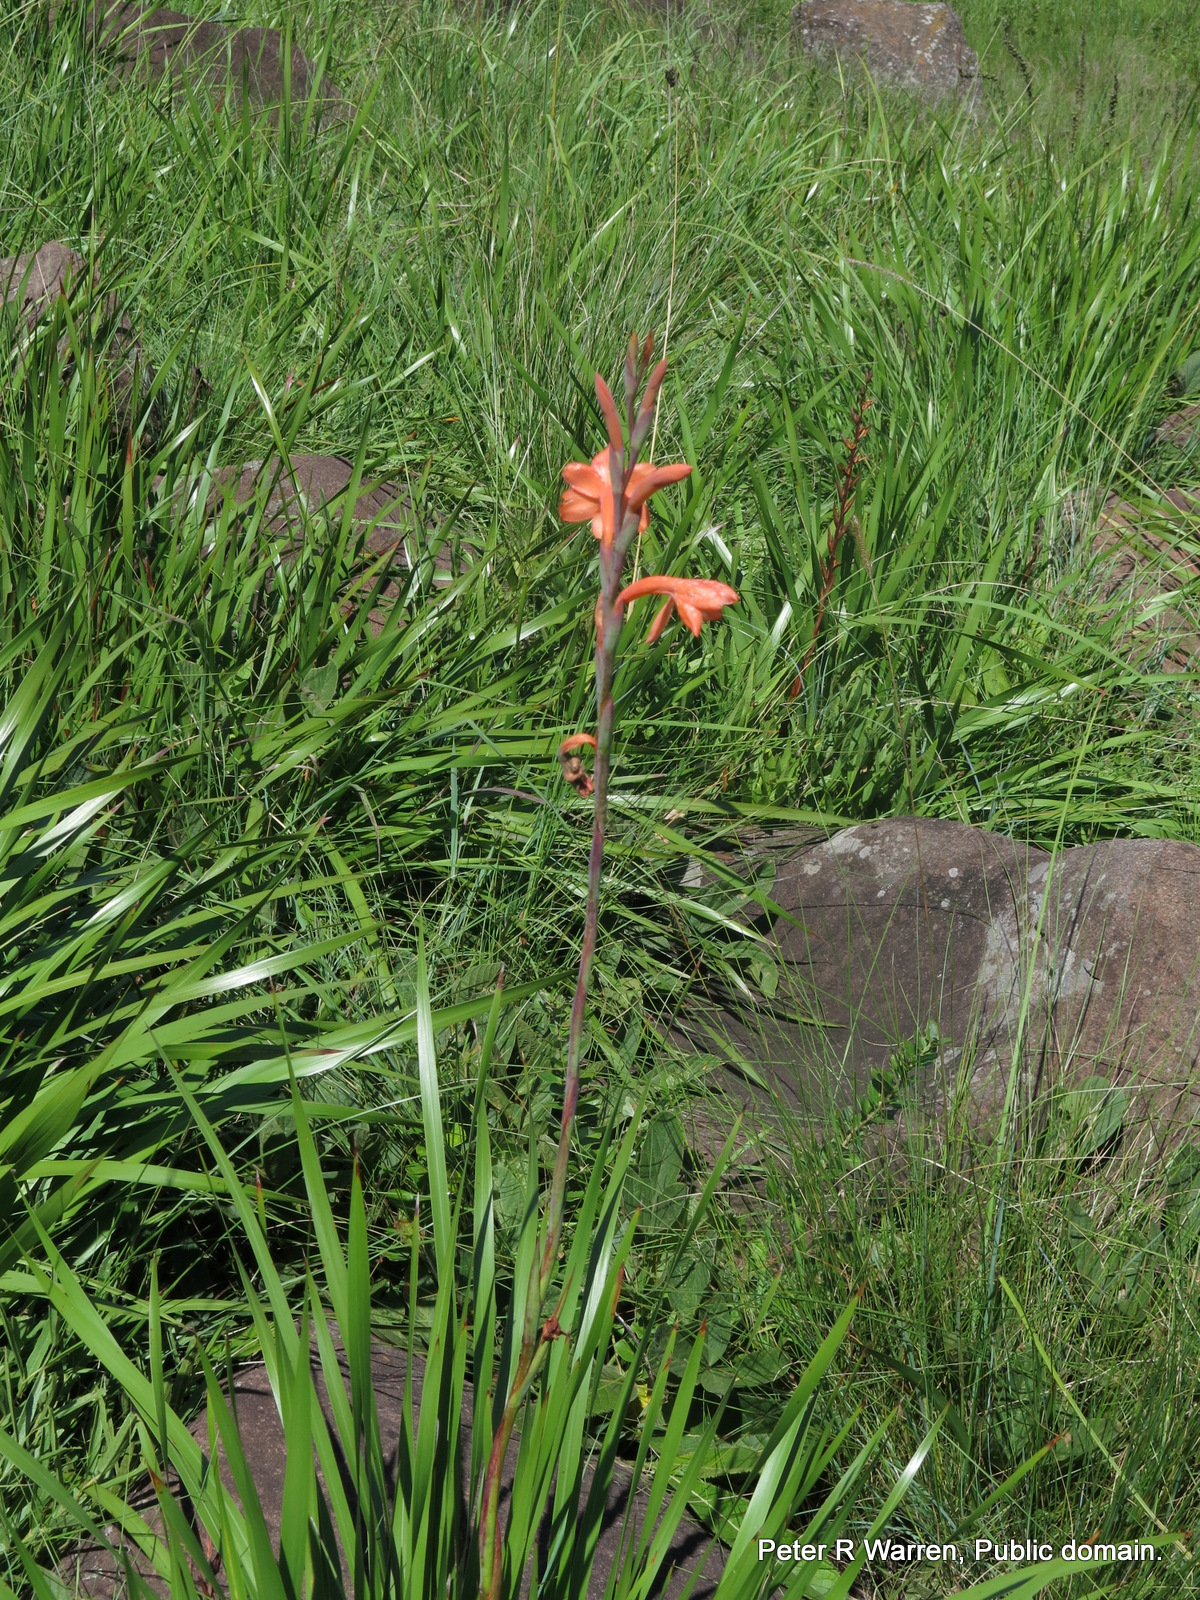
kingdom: Plantae
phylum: Tracheophyta
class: Liliopsida
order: Asparagales
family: Iridaceae
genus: Watsonia
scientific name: Watsonia pillansii
